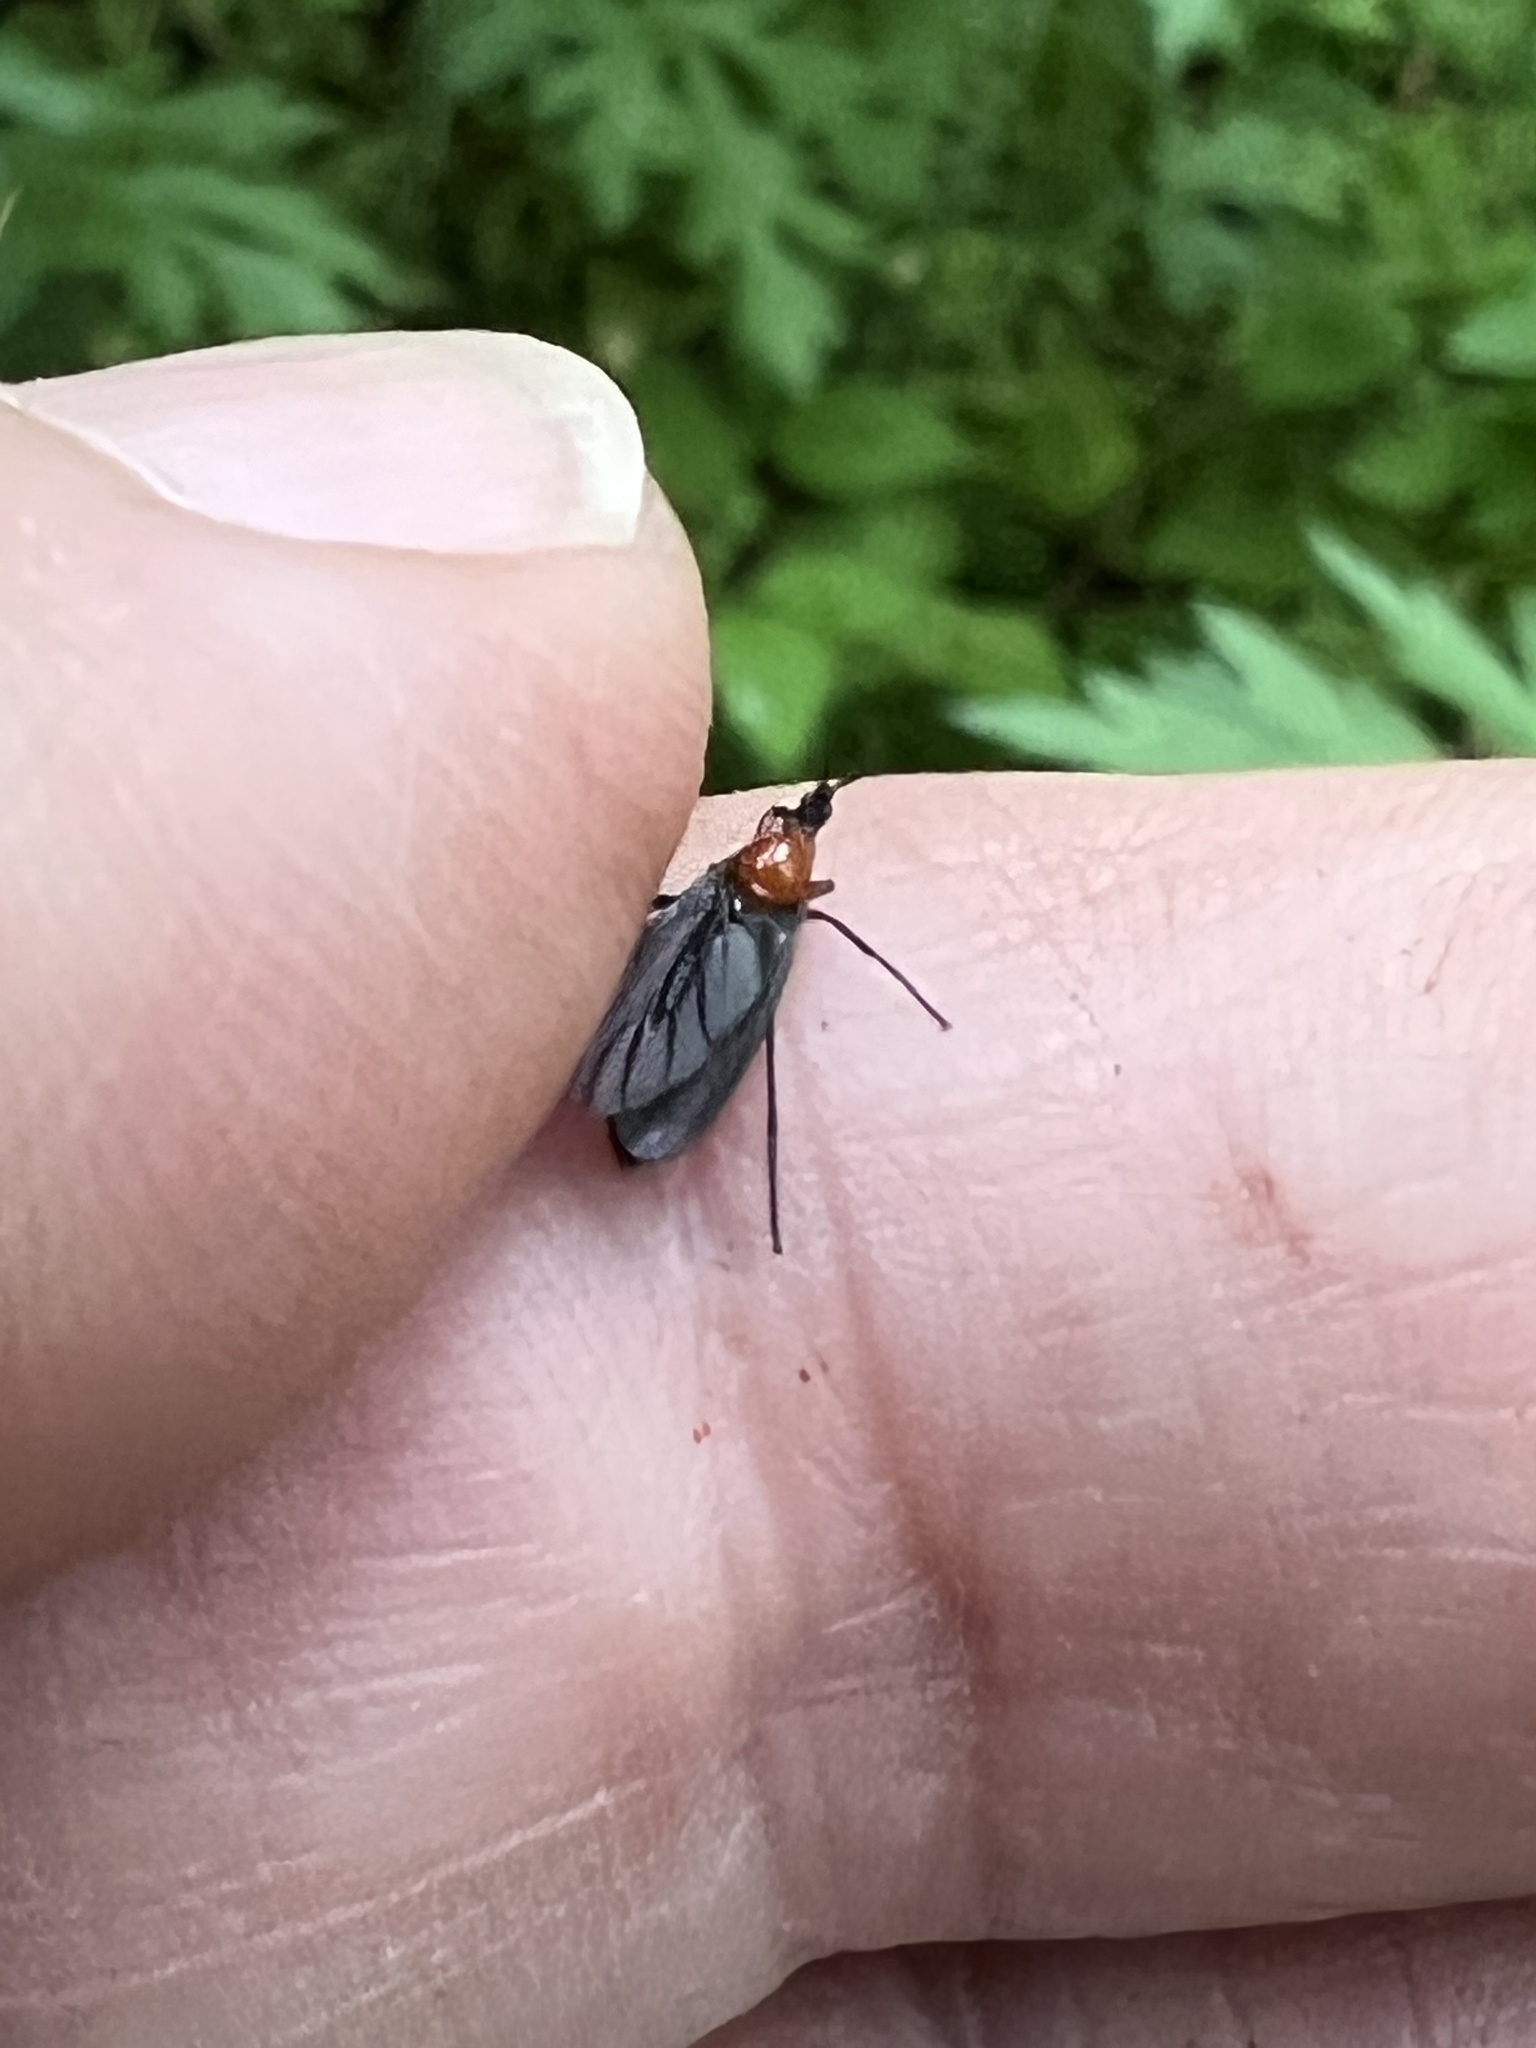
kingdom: Animalia
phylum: Arthropoda
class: Insecta
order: Diptera
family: Bibionidae
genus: Dilophus
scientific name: Dilophus spinipes
